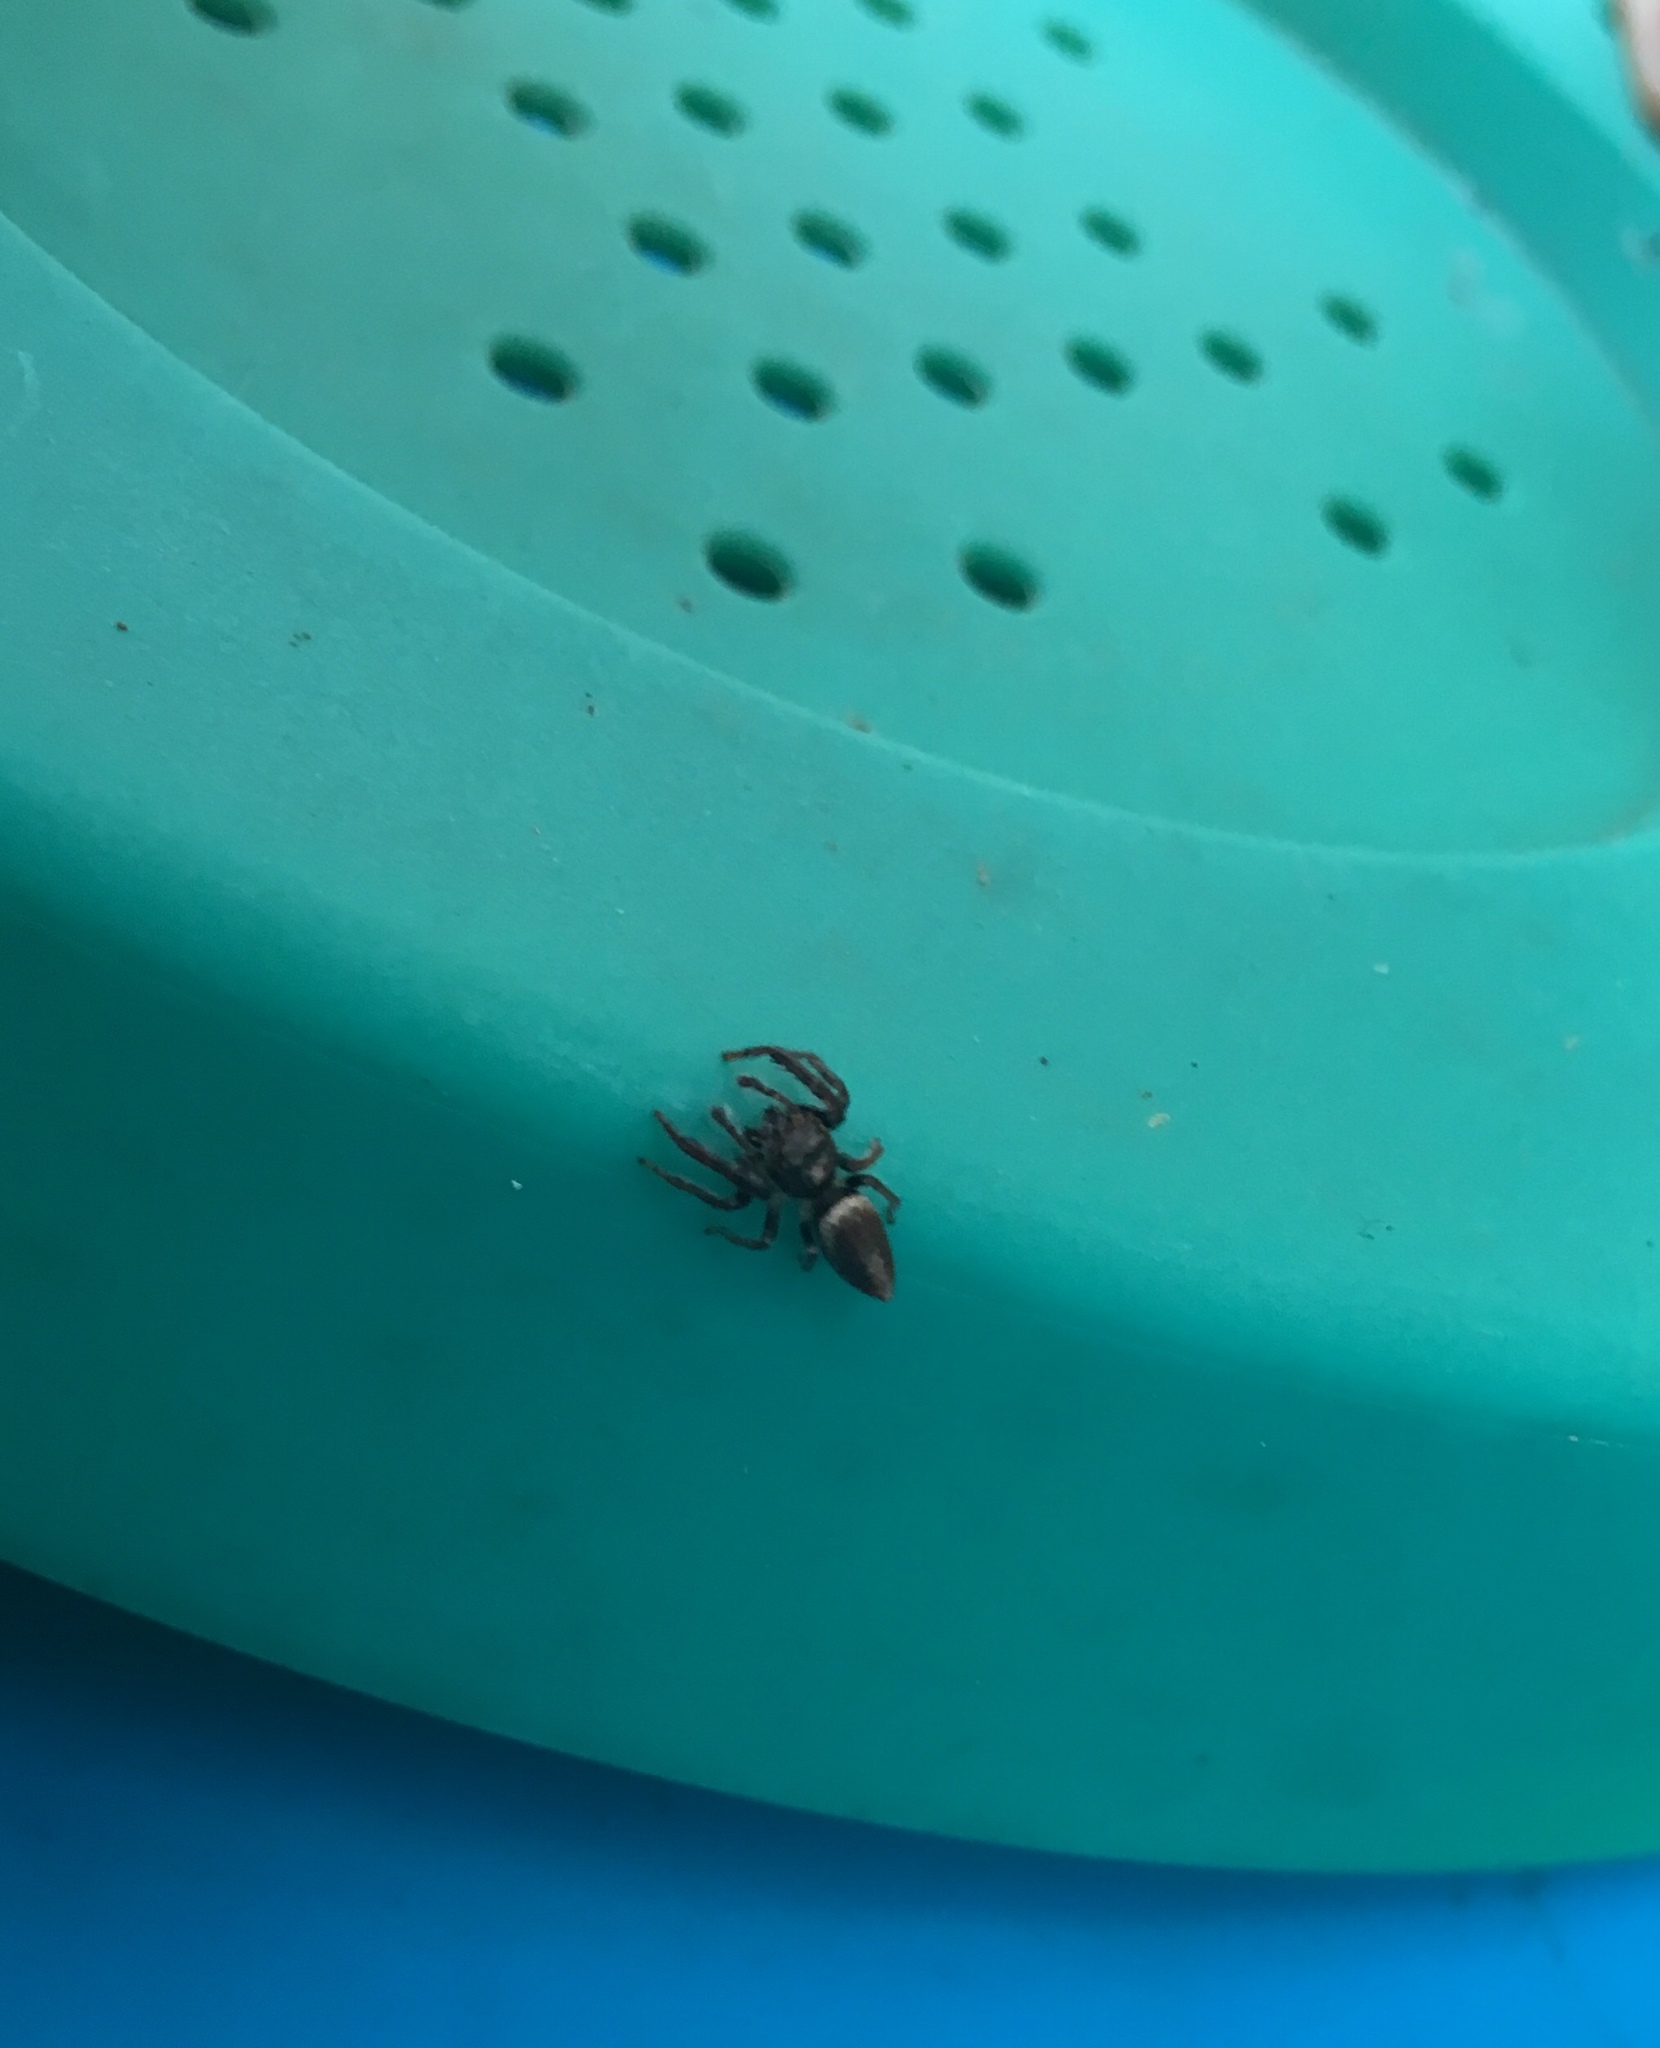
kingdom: Animalia
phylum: Arthropoda
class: Arachnida
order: Araneae
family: Salticidae
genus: Opisthoncus
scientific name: Opisthoncus polyphemus
